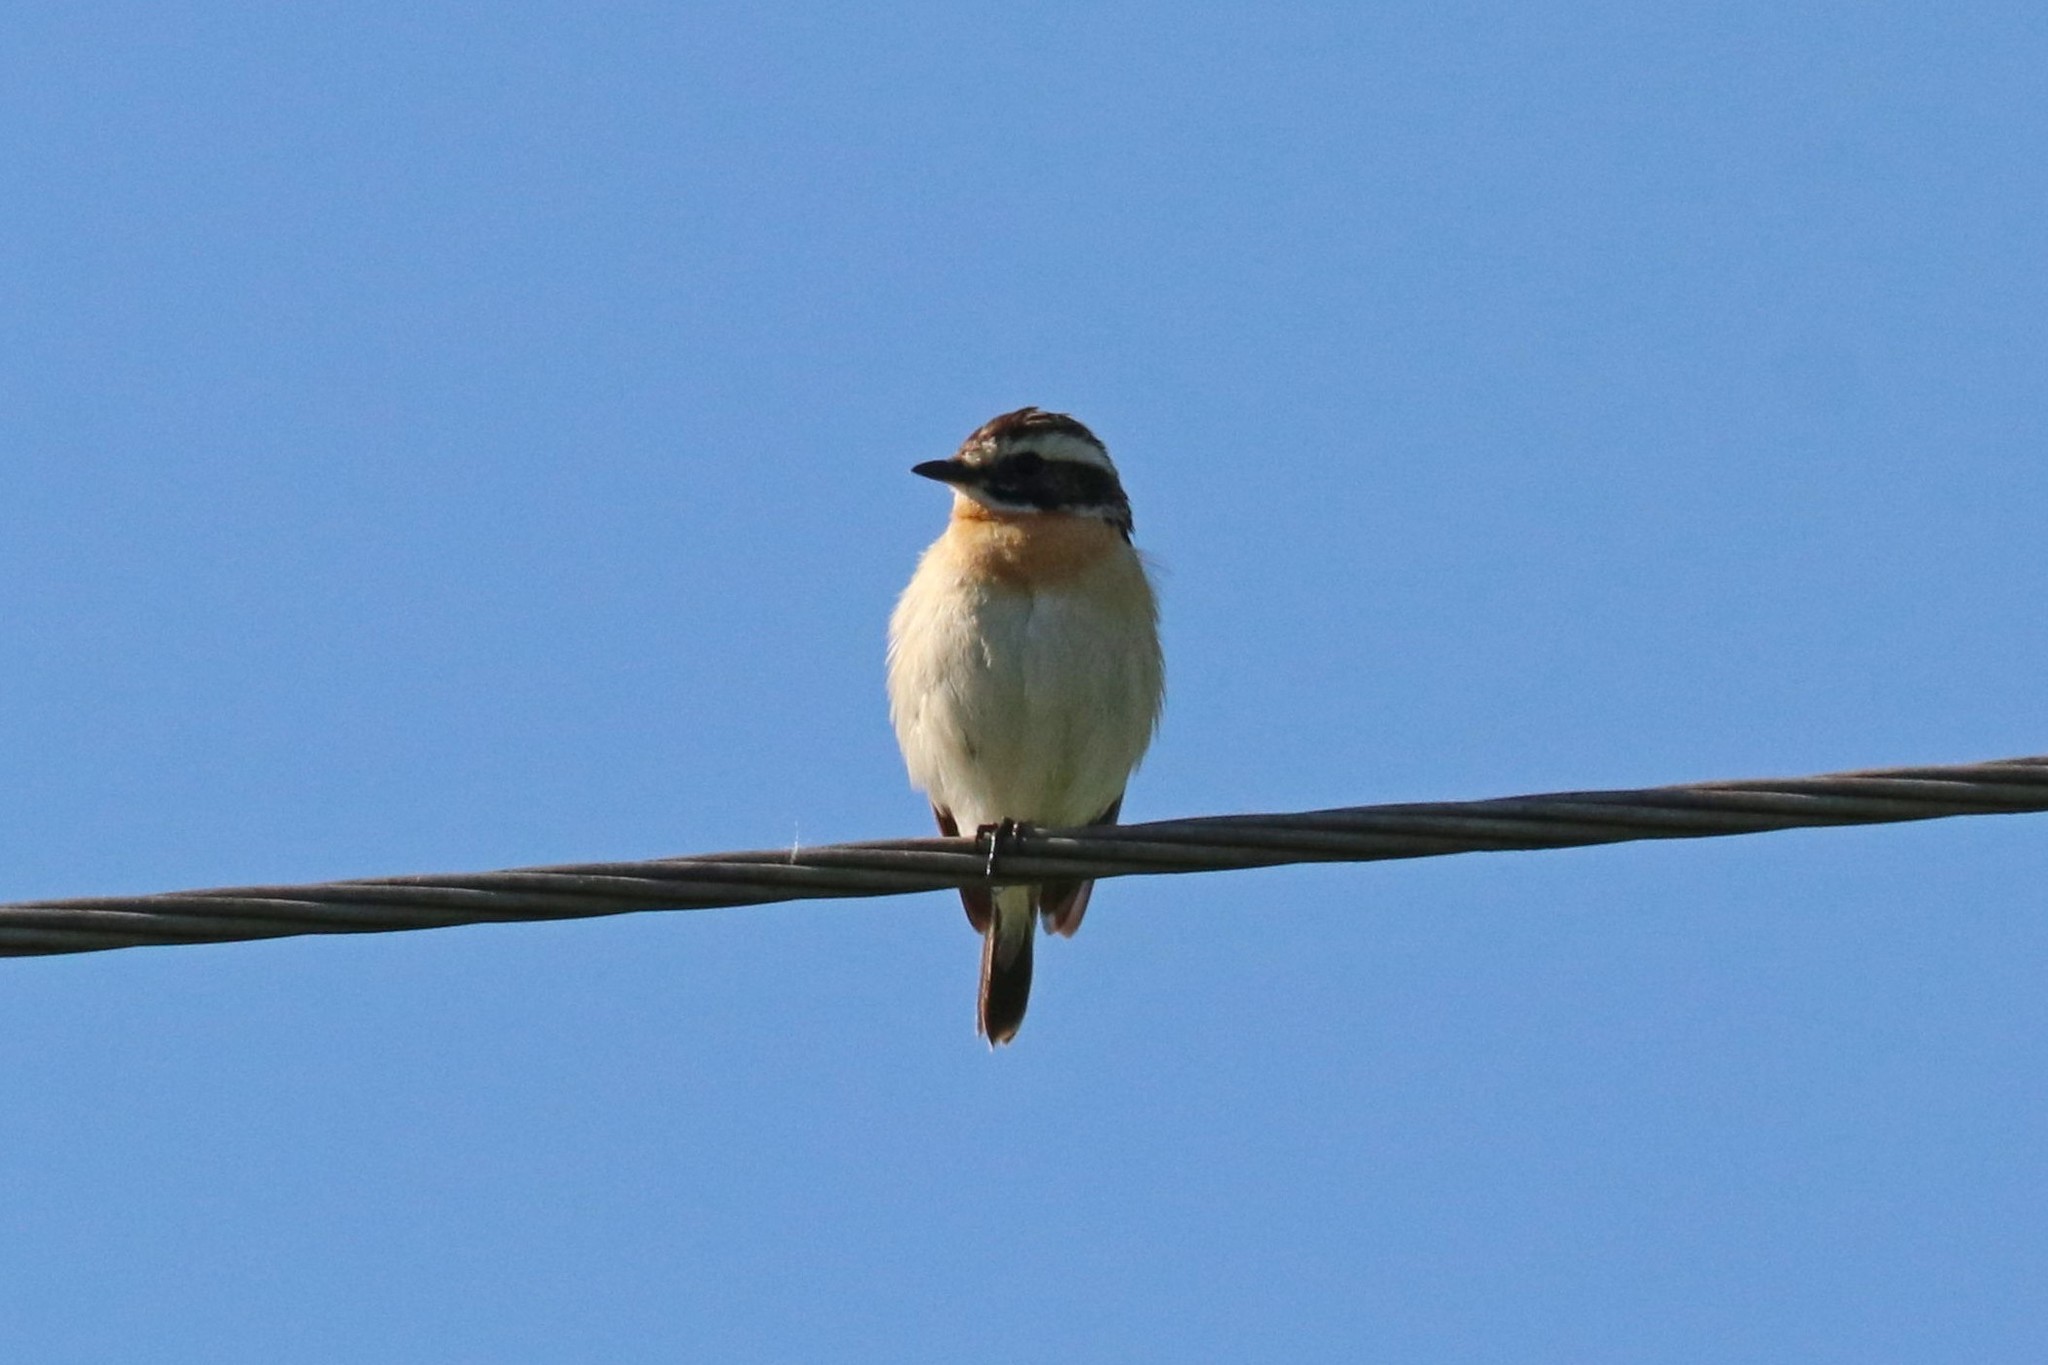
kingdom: Animalia
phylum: Chordata
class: Aves
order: Passeriformes
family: Muscicapidae
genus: Saxicola
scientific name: Saxicola rubetra
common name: Whinchat
